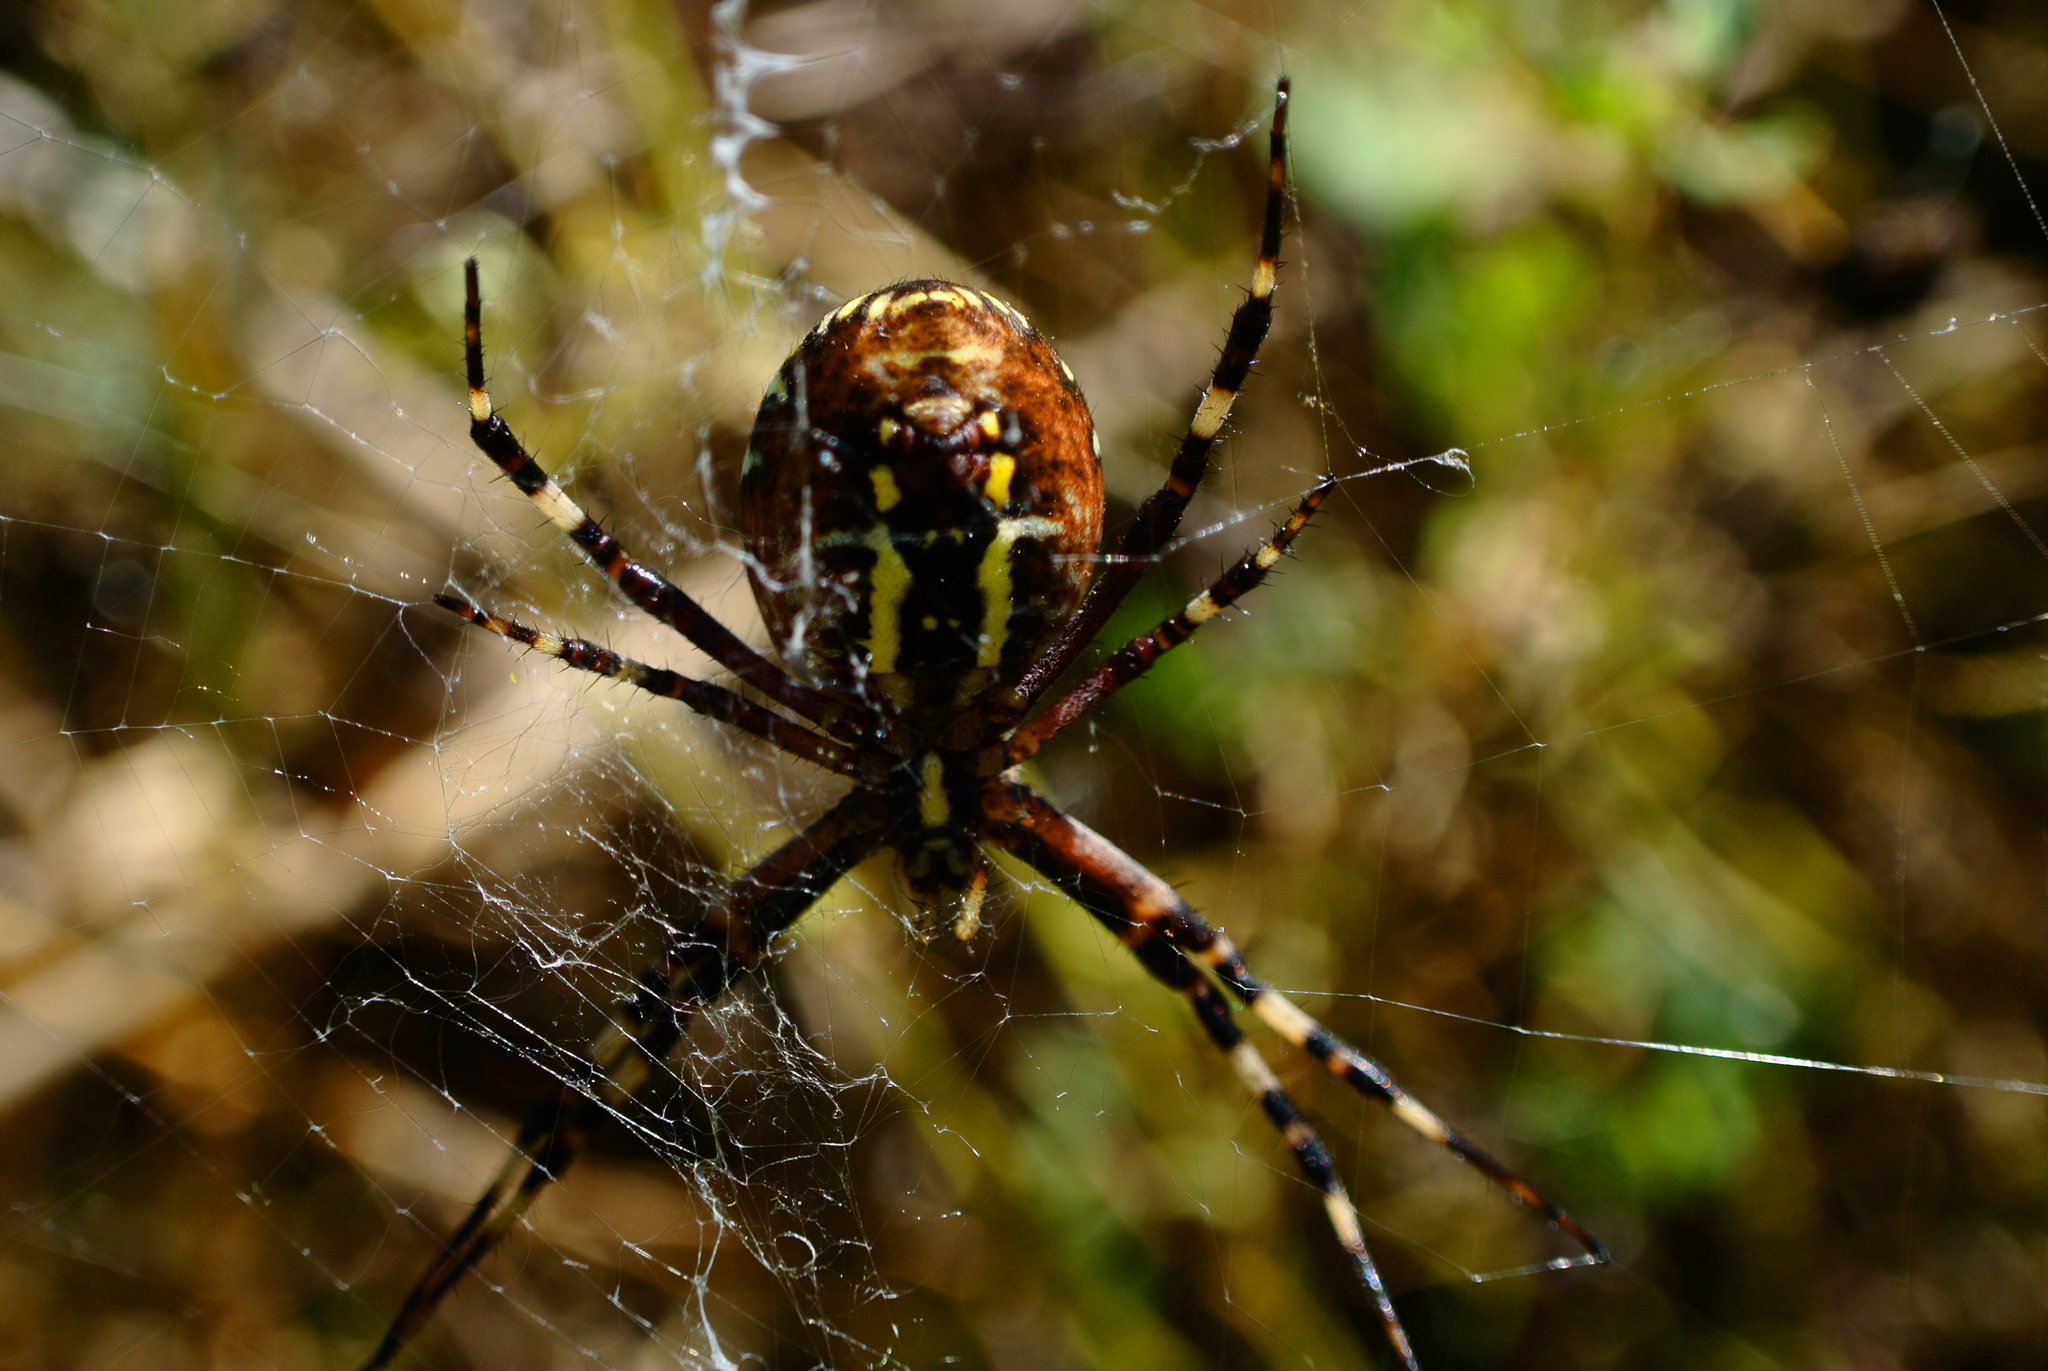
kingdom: Animalia
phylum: Arthropoda
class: Arachnida
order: Araneae
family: Araneidae
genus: Argiope
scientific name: Argiope bruennichi
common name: Wasp spider
